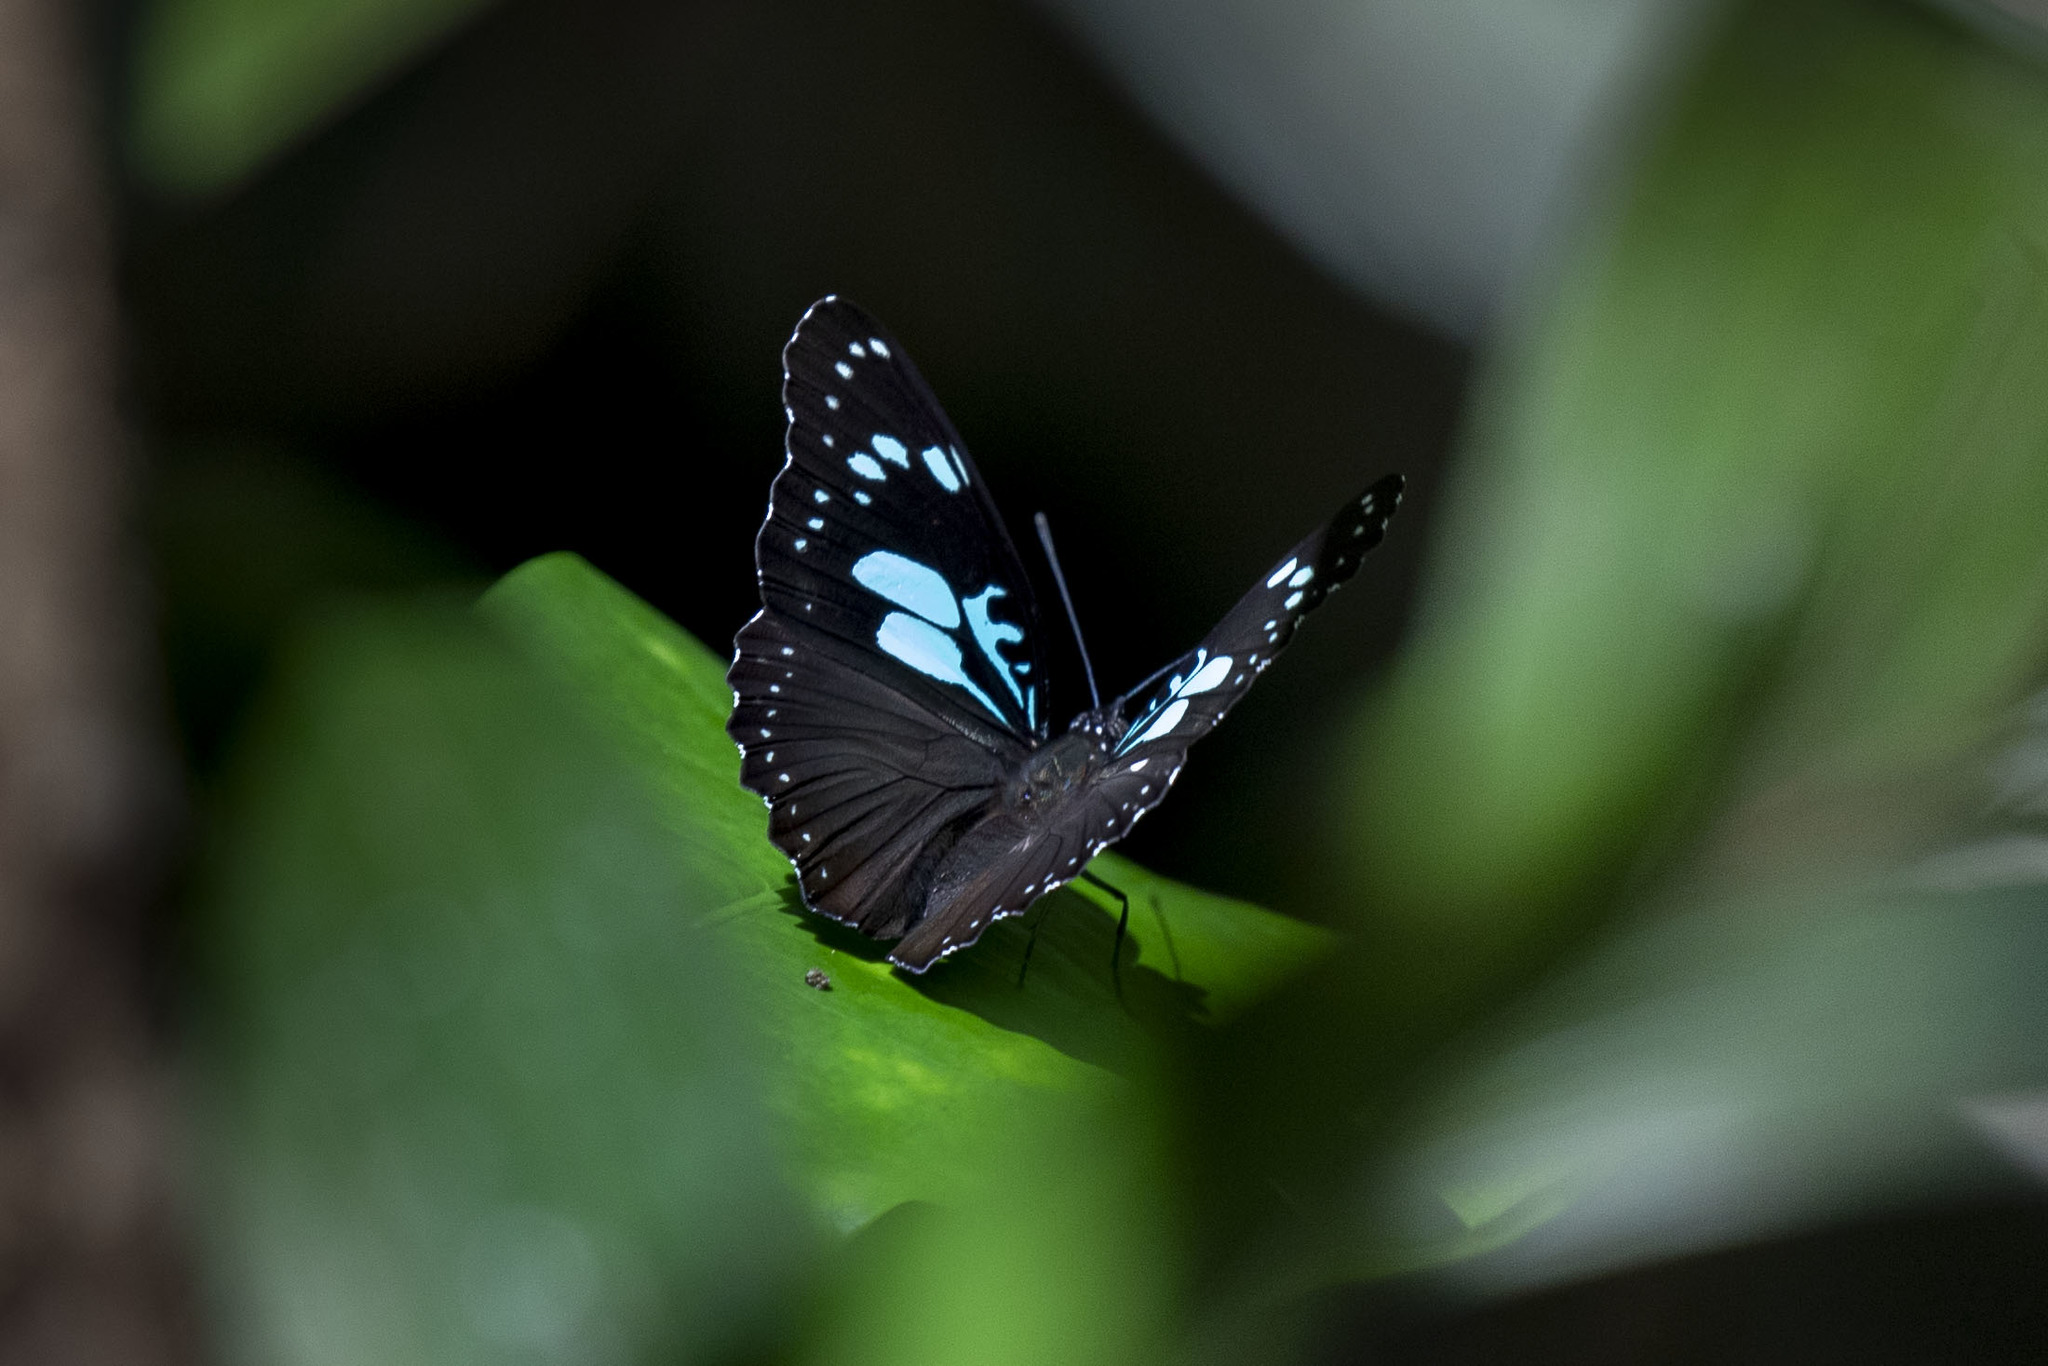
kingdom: Animalia
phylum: Arthropoda
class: Insecta
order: Lepidoptera
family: Nymphalidae
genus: Pseudacraea
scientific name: Pseudacraea
